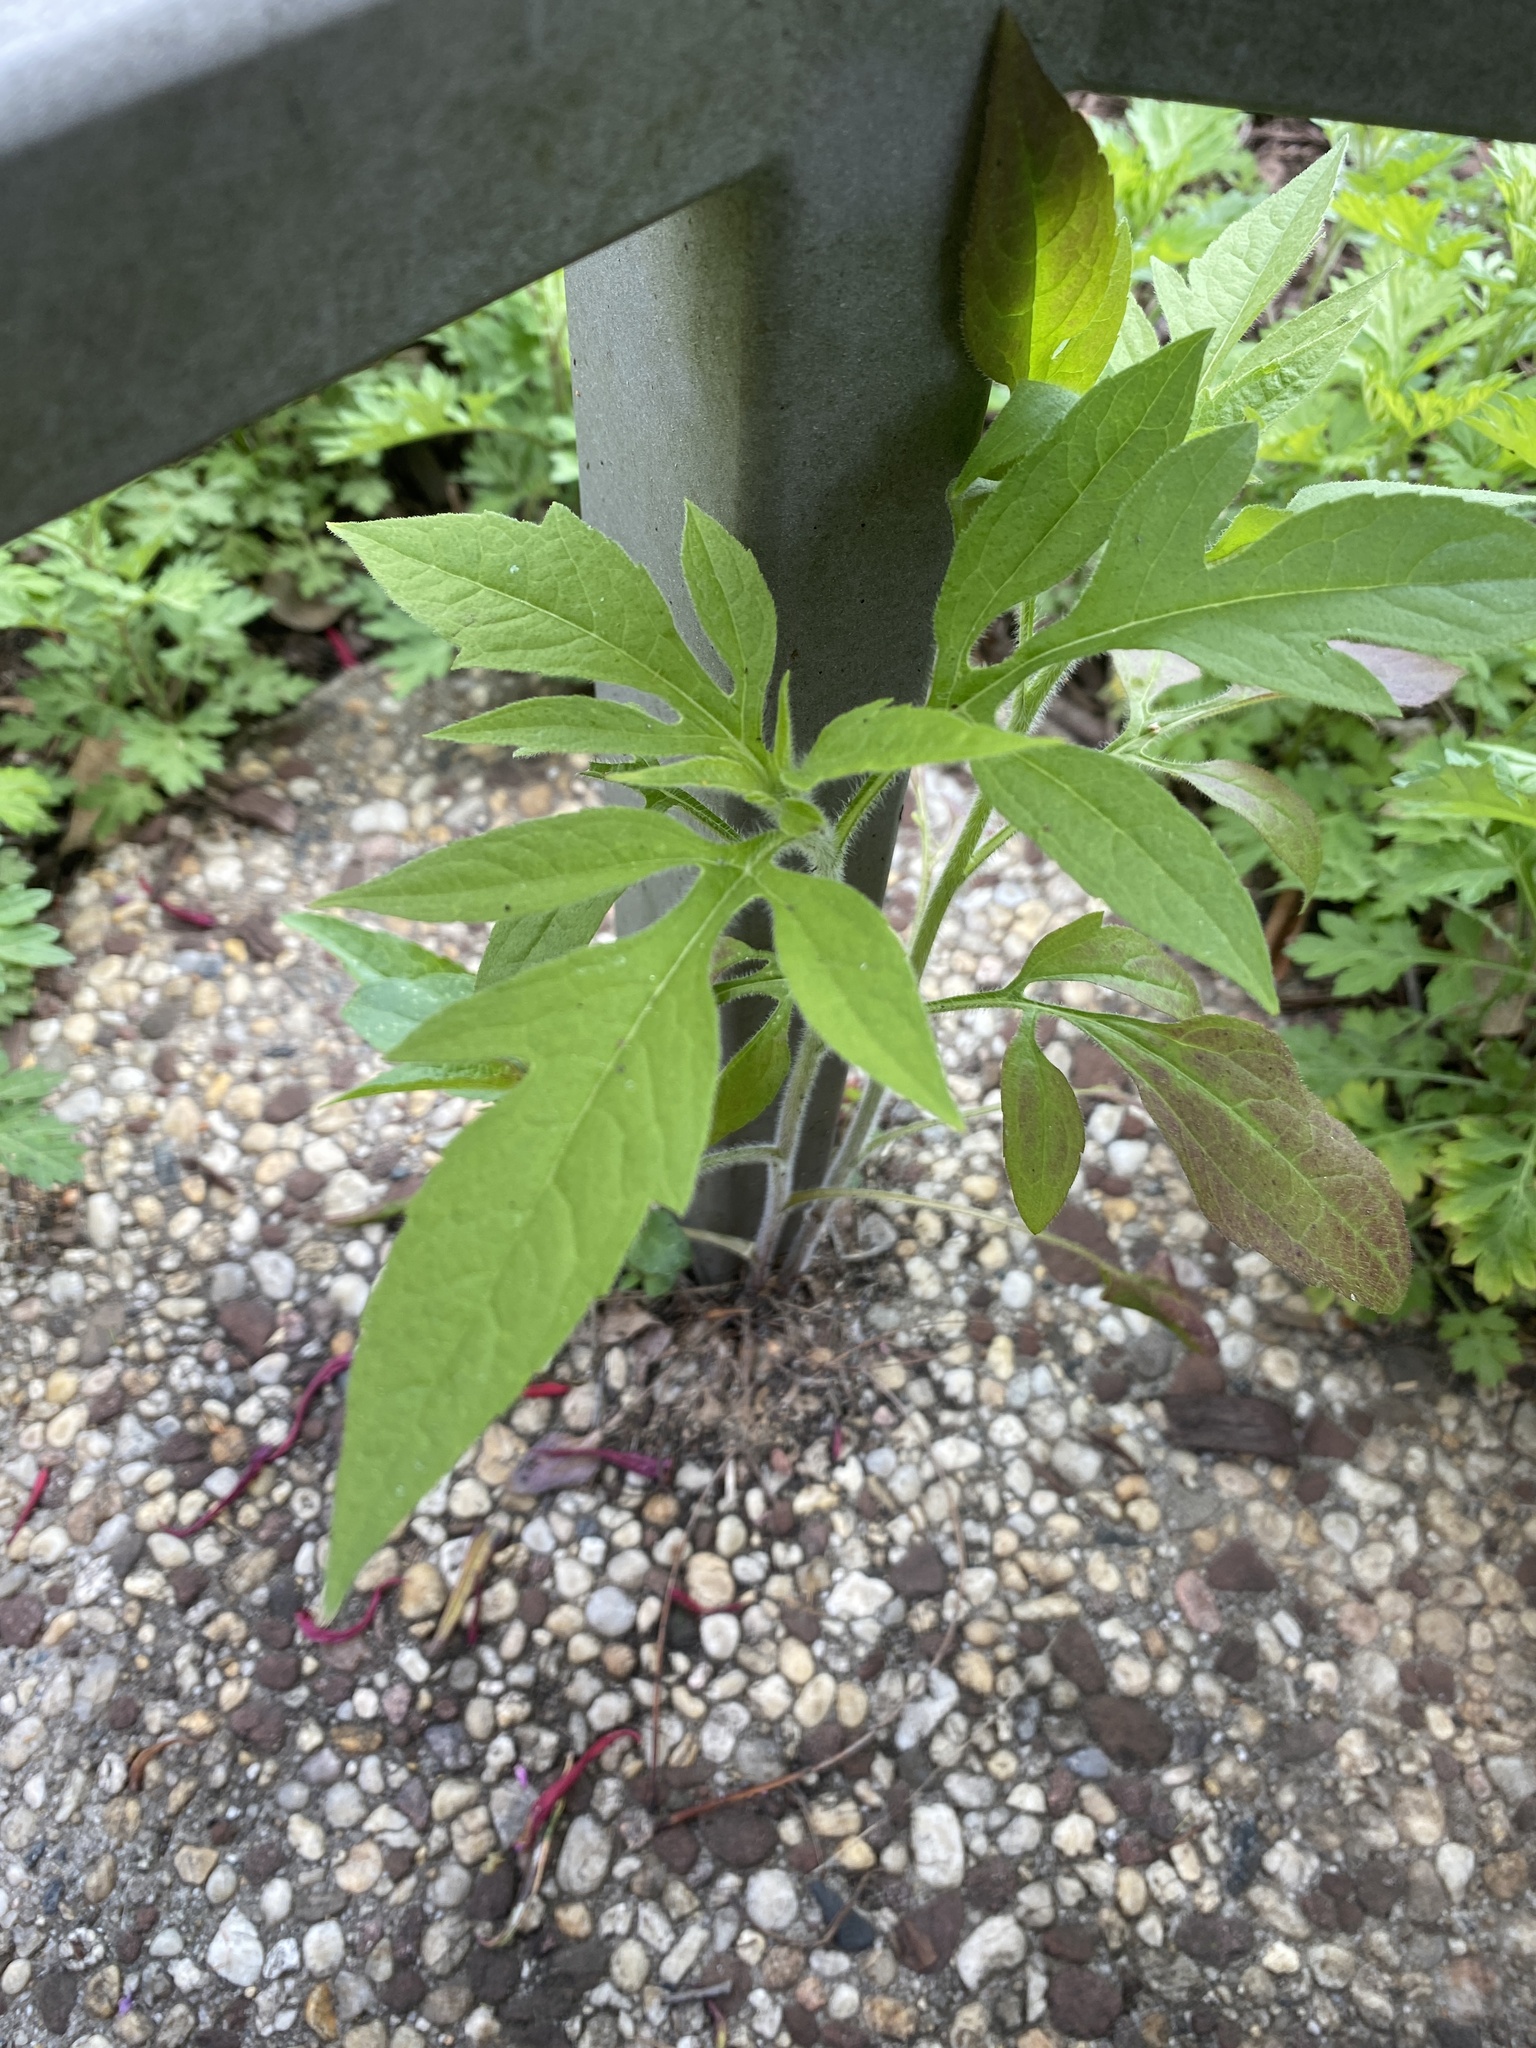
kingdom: Plantae
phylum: Tracheophyta
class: Magnoliopsida
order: Asterales
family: Asteraceae
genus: Rudbeckia
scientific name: Rudbeckia triloba
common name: Thin-leaved coneflower
